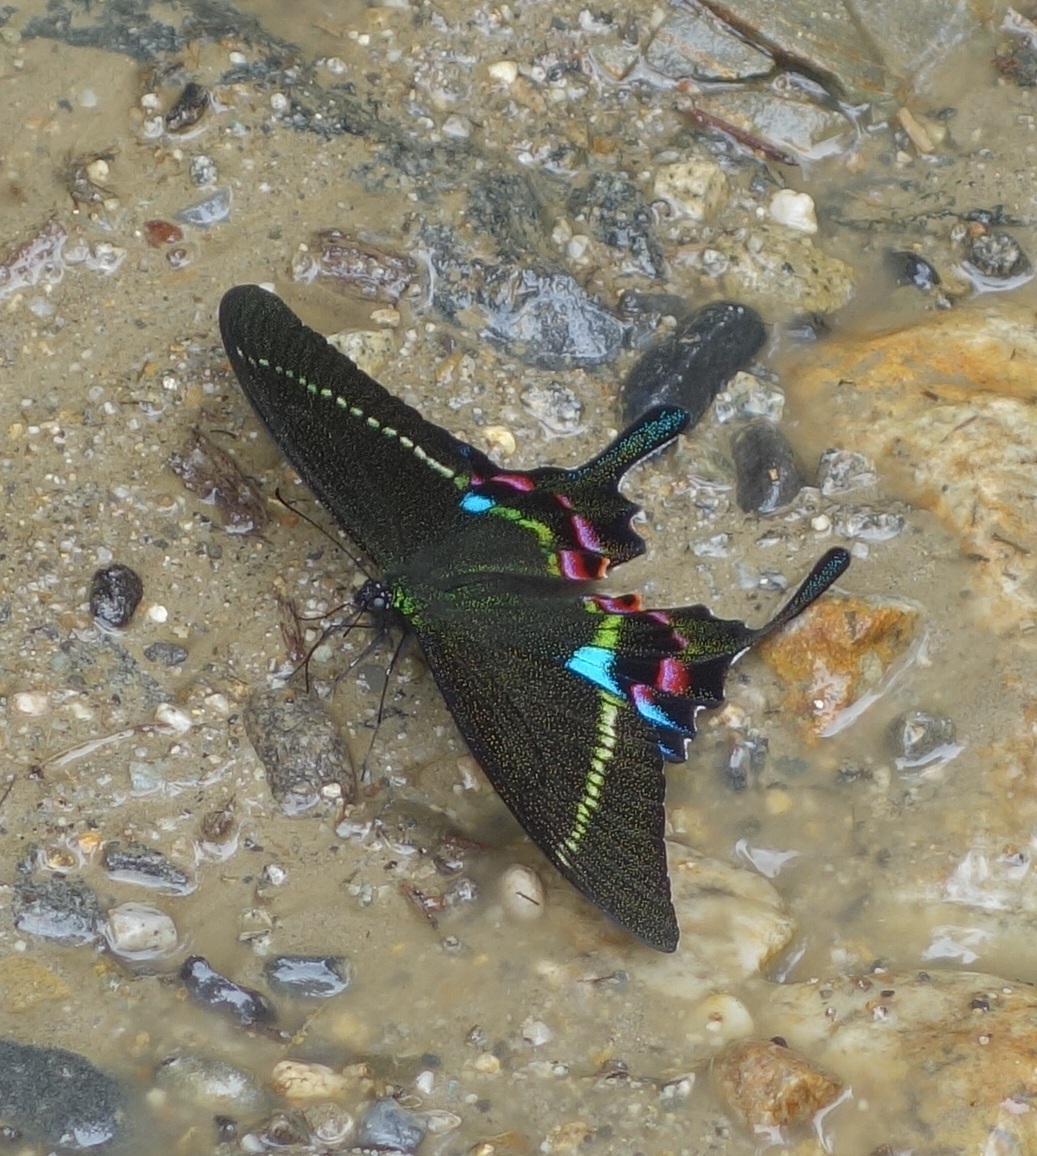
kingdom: Animalia
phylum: Arthropoda
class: Insecta
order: Lepidoptera
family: Papilionidae
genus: Papilio
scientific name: Papilio krishna
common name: Krishna peacock
